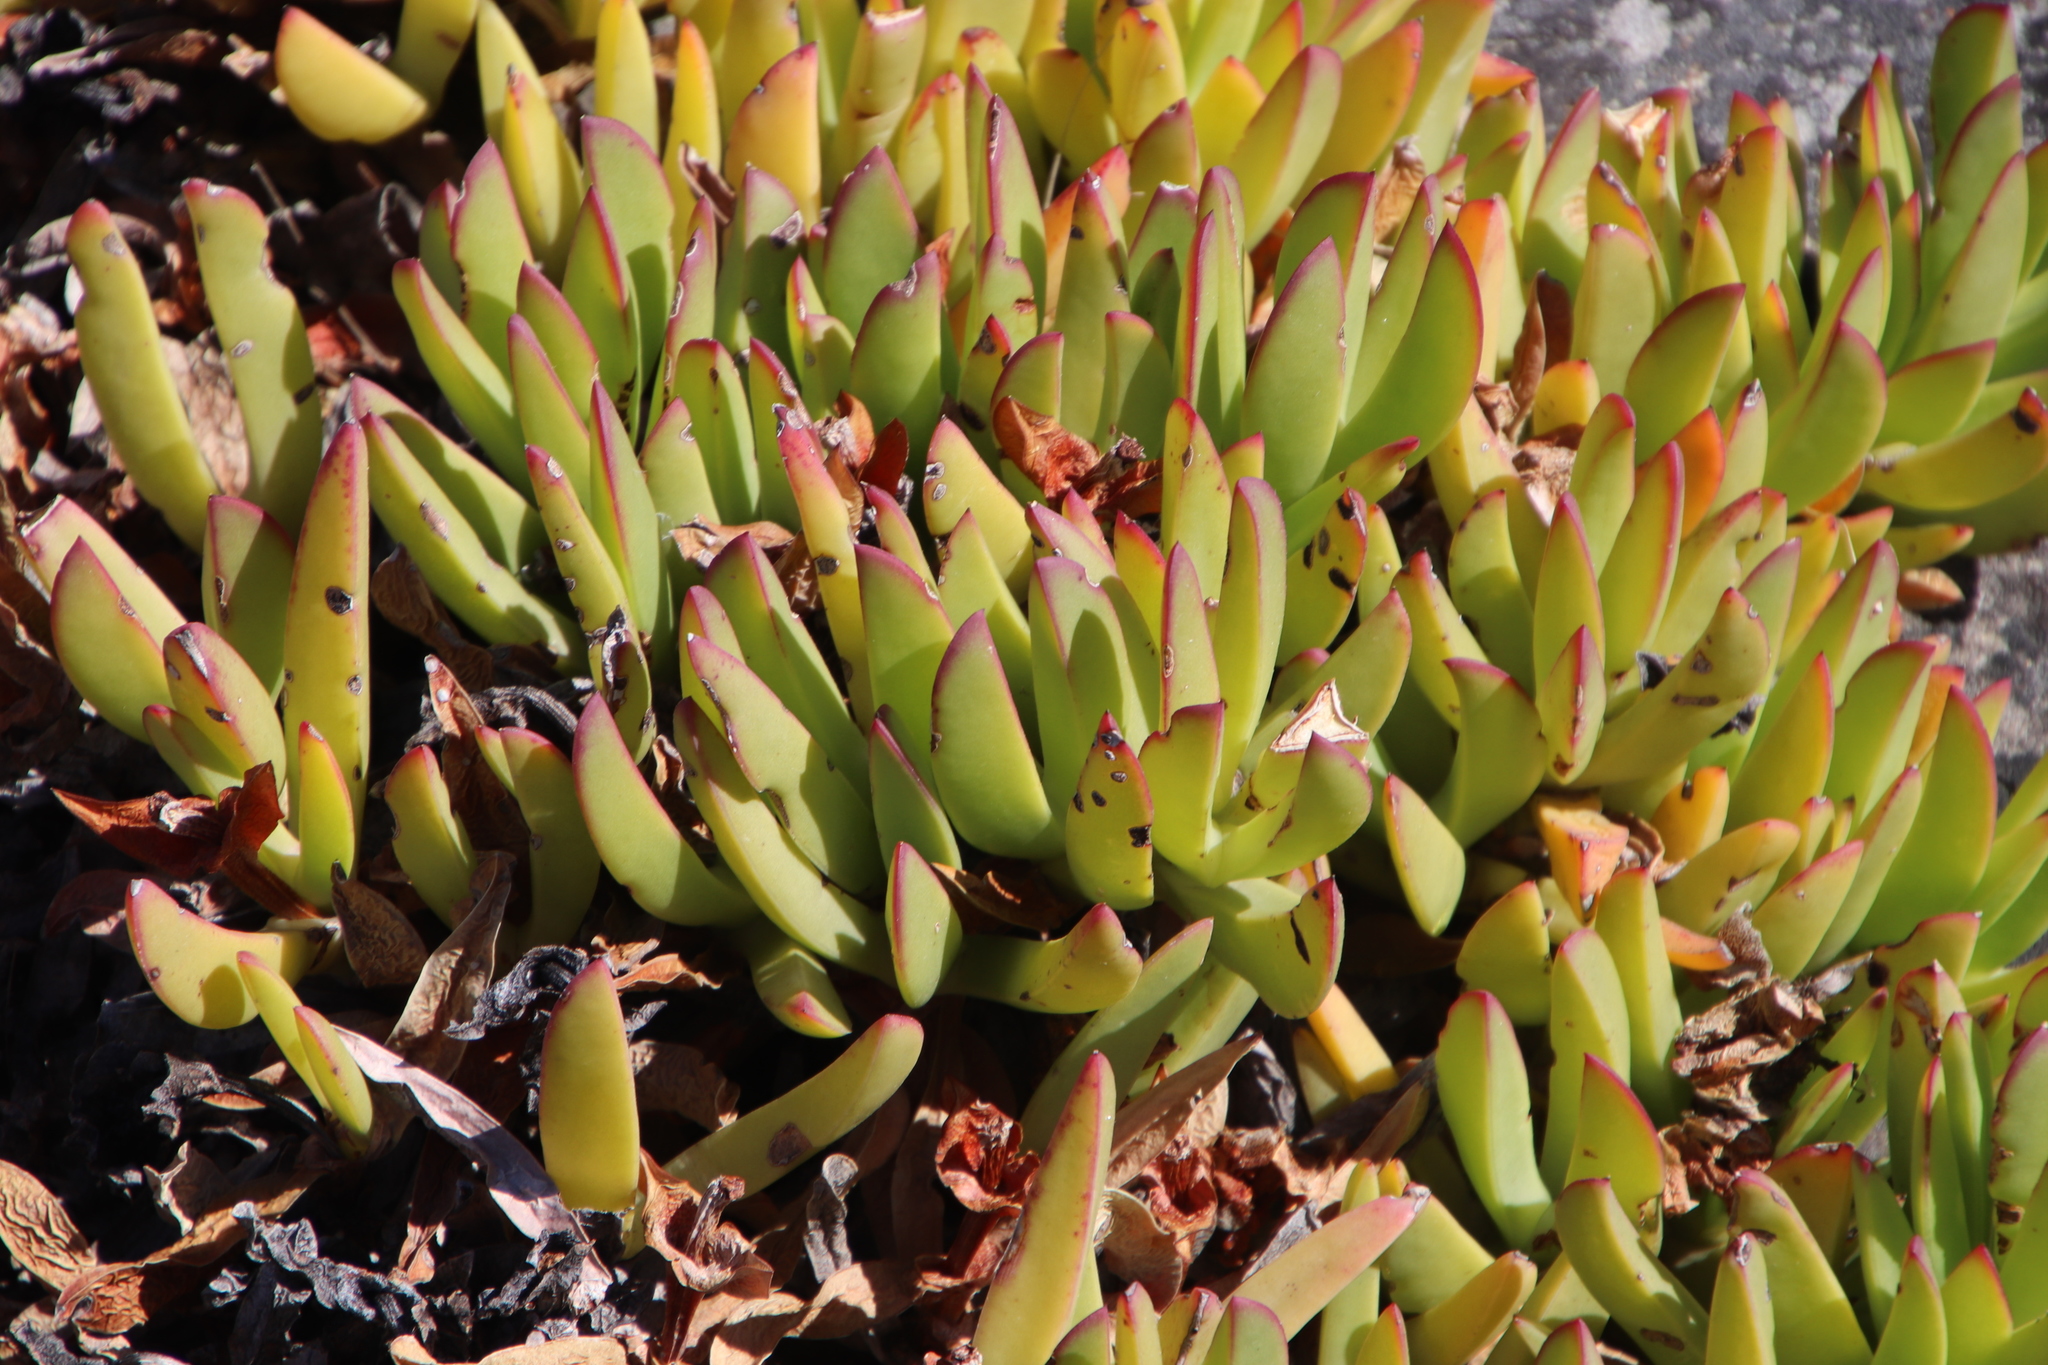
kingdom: Plantae
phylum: Tracheophyta
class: Magnoliopsida
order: Caryophyllales
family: Aizoaceae
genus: Carpobrotus
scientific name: Carpobrotus acinaciformis
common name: Sally-my-handsome
